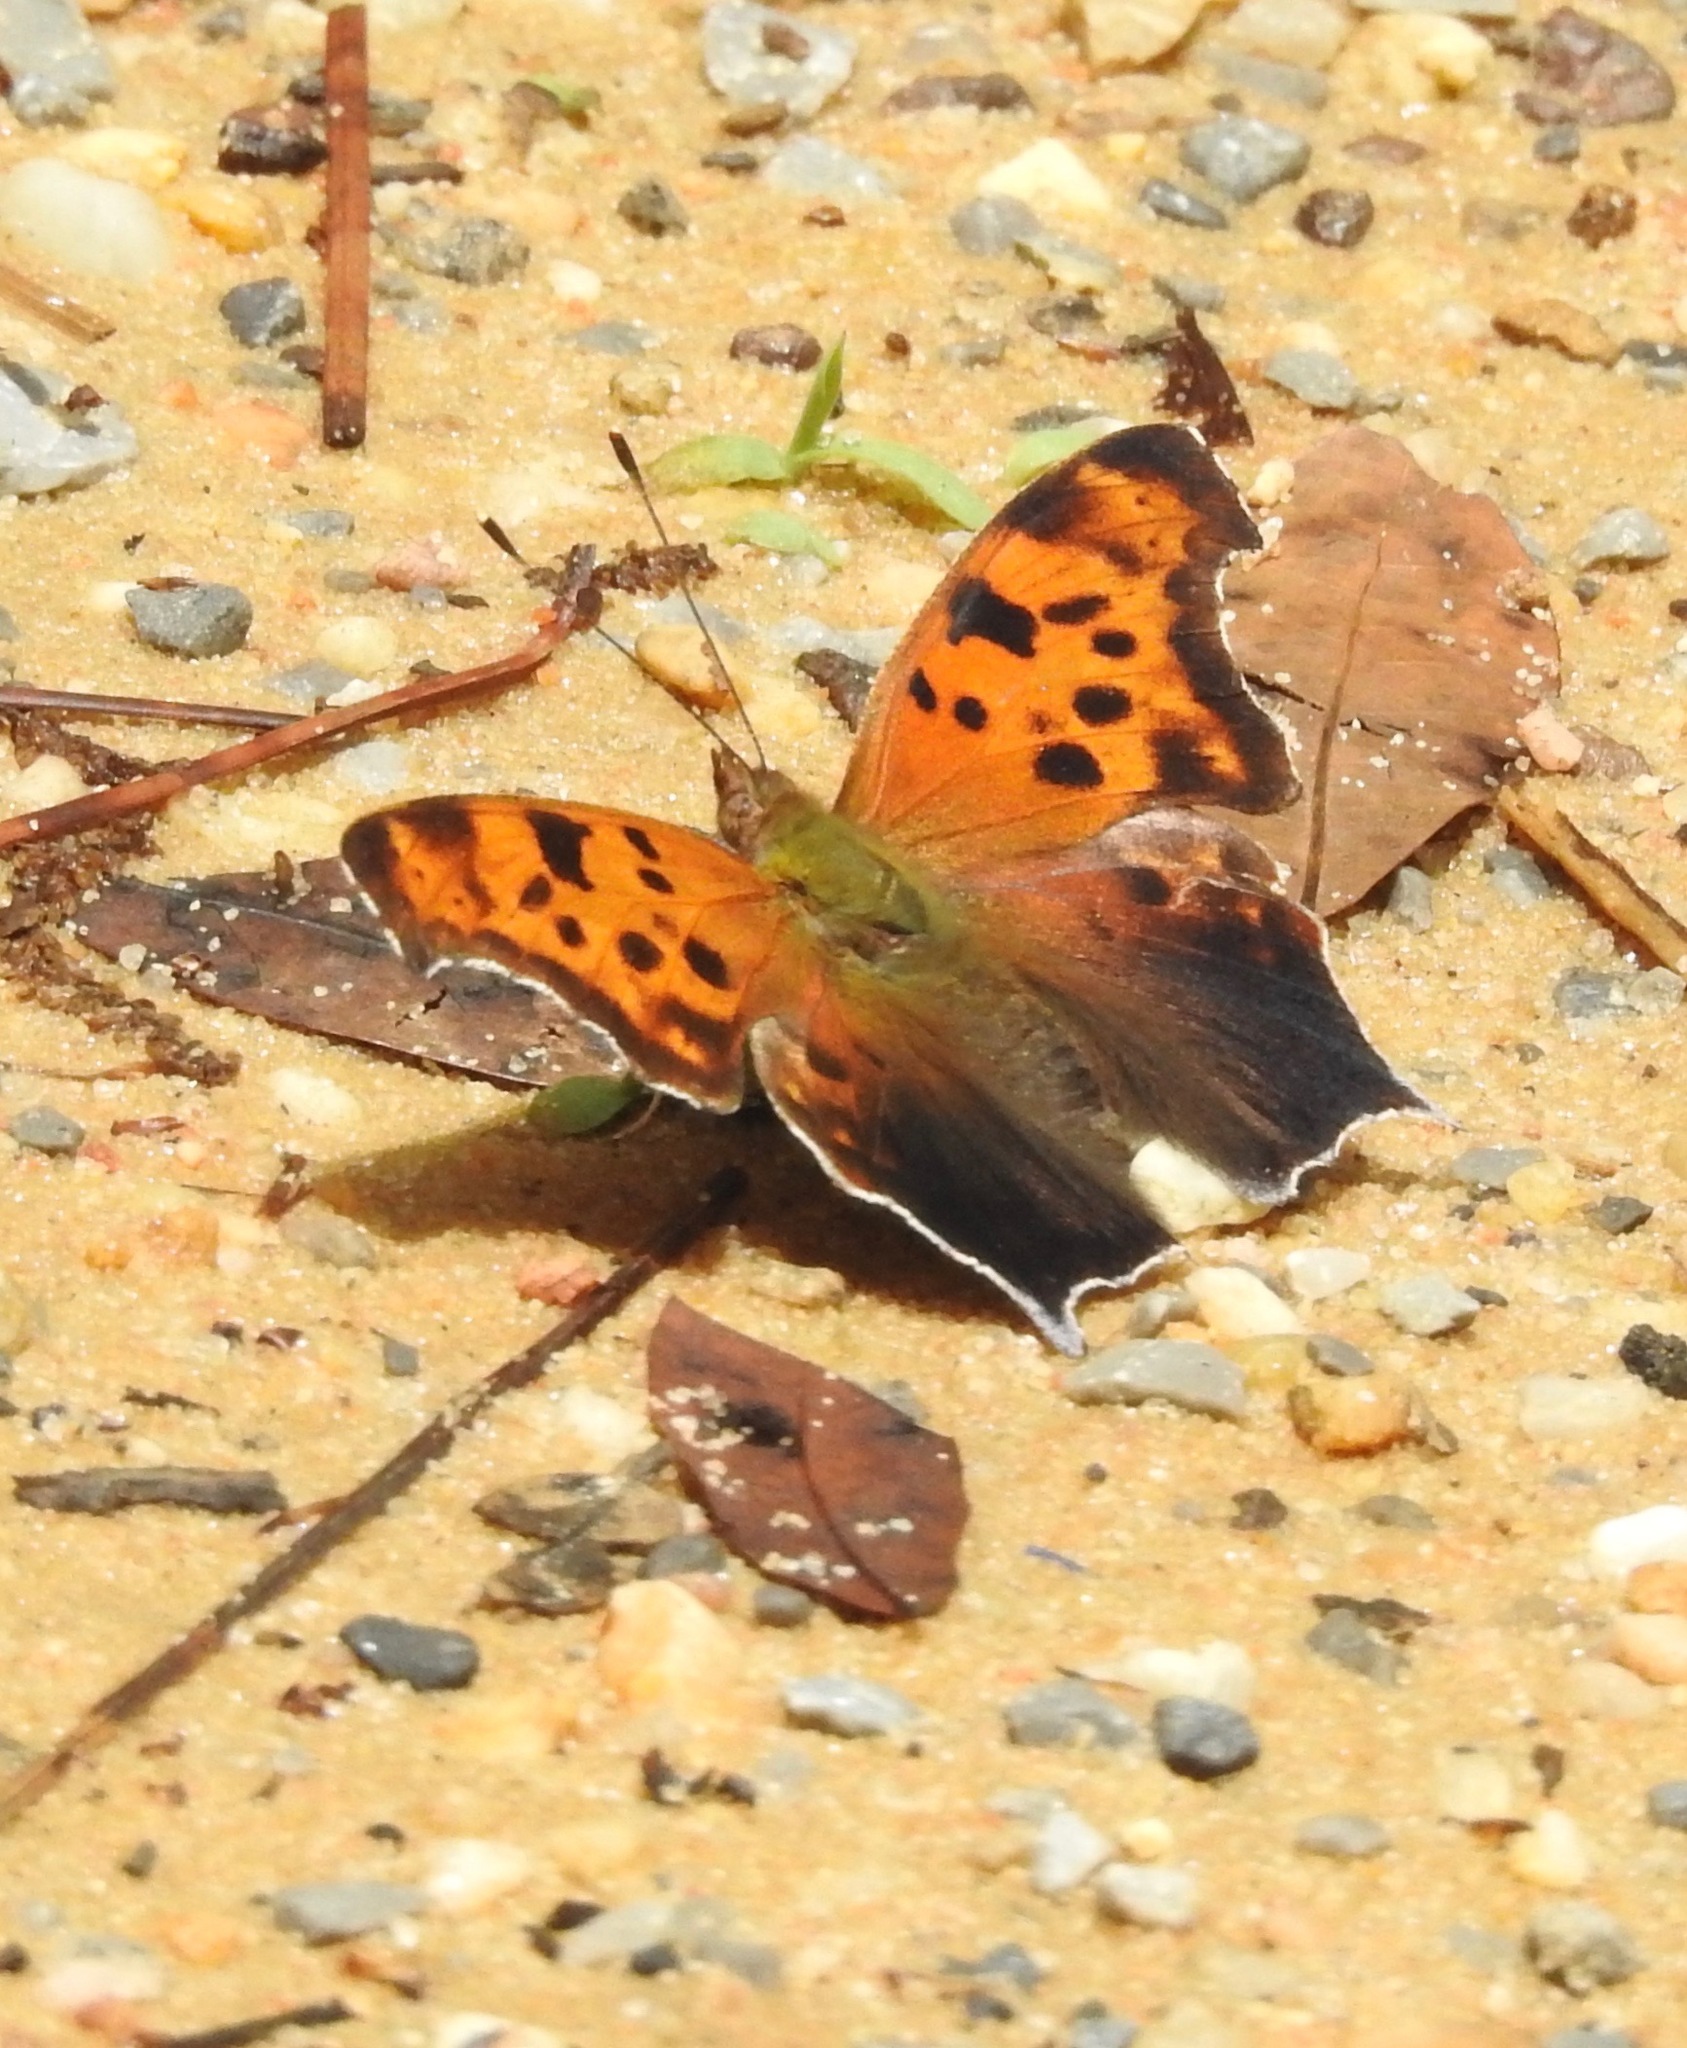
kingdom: Animalia
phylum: Arthropoda
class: Insecta
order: Lepidoptera
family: Nymphalidae
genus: Polygonia
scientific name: Polygonia interrogationis
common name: Question mark
